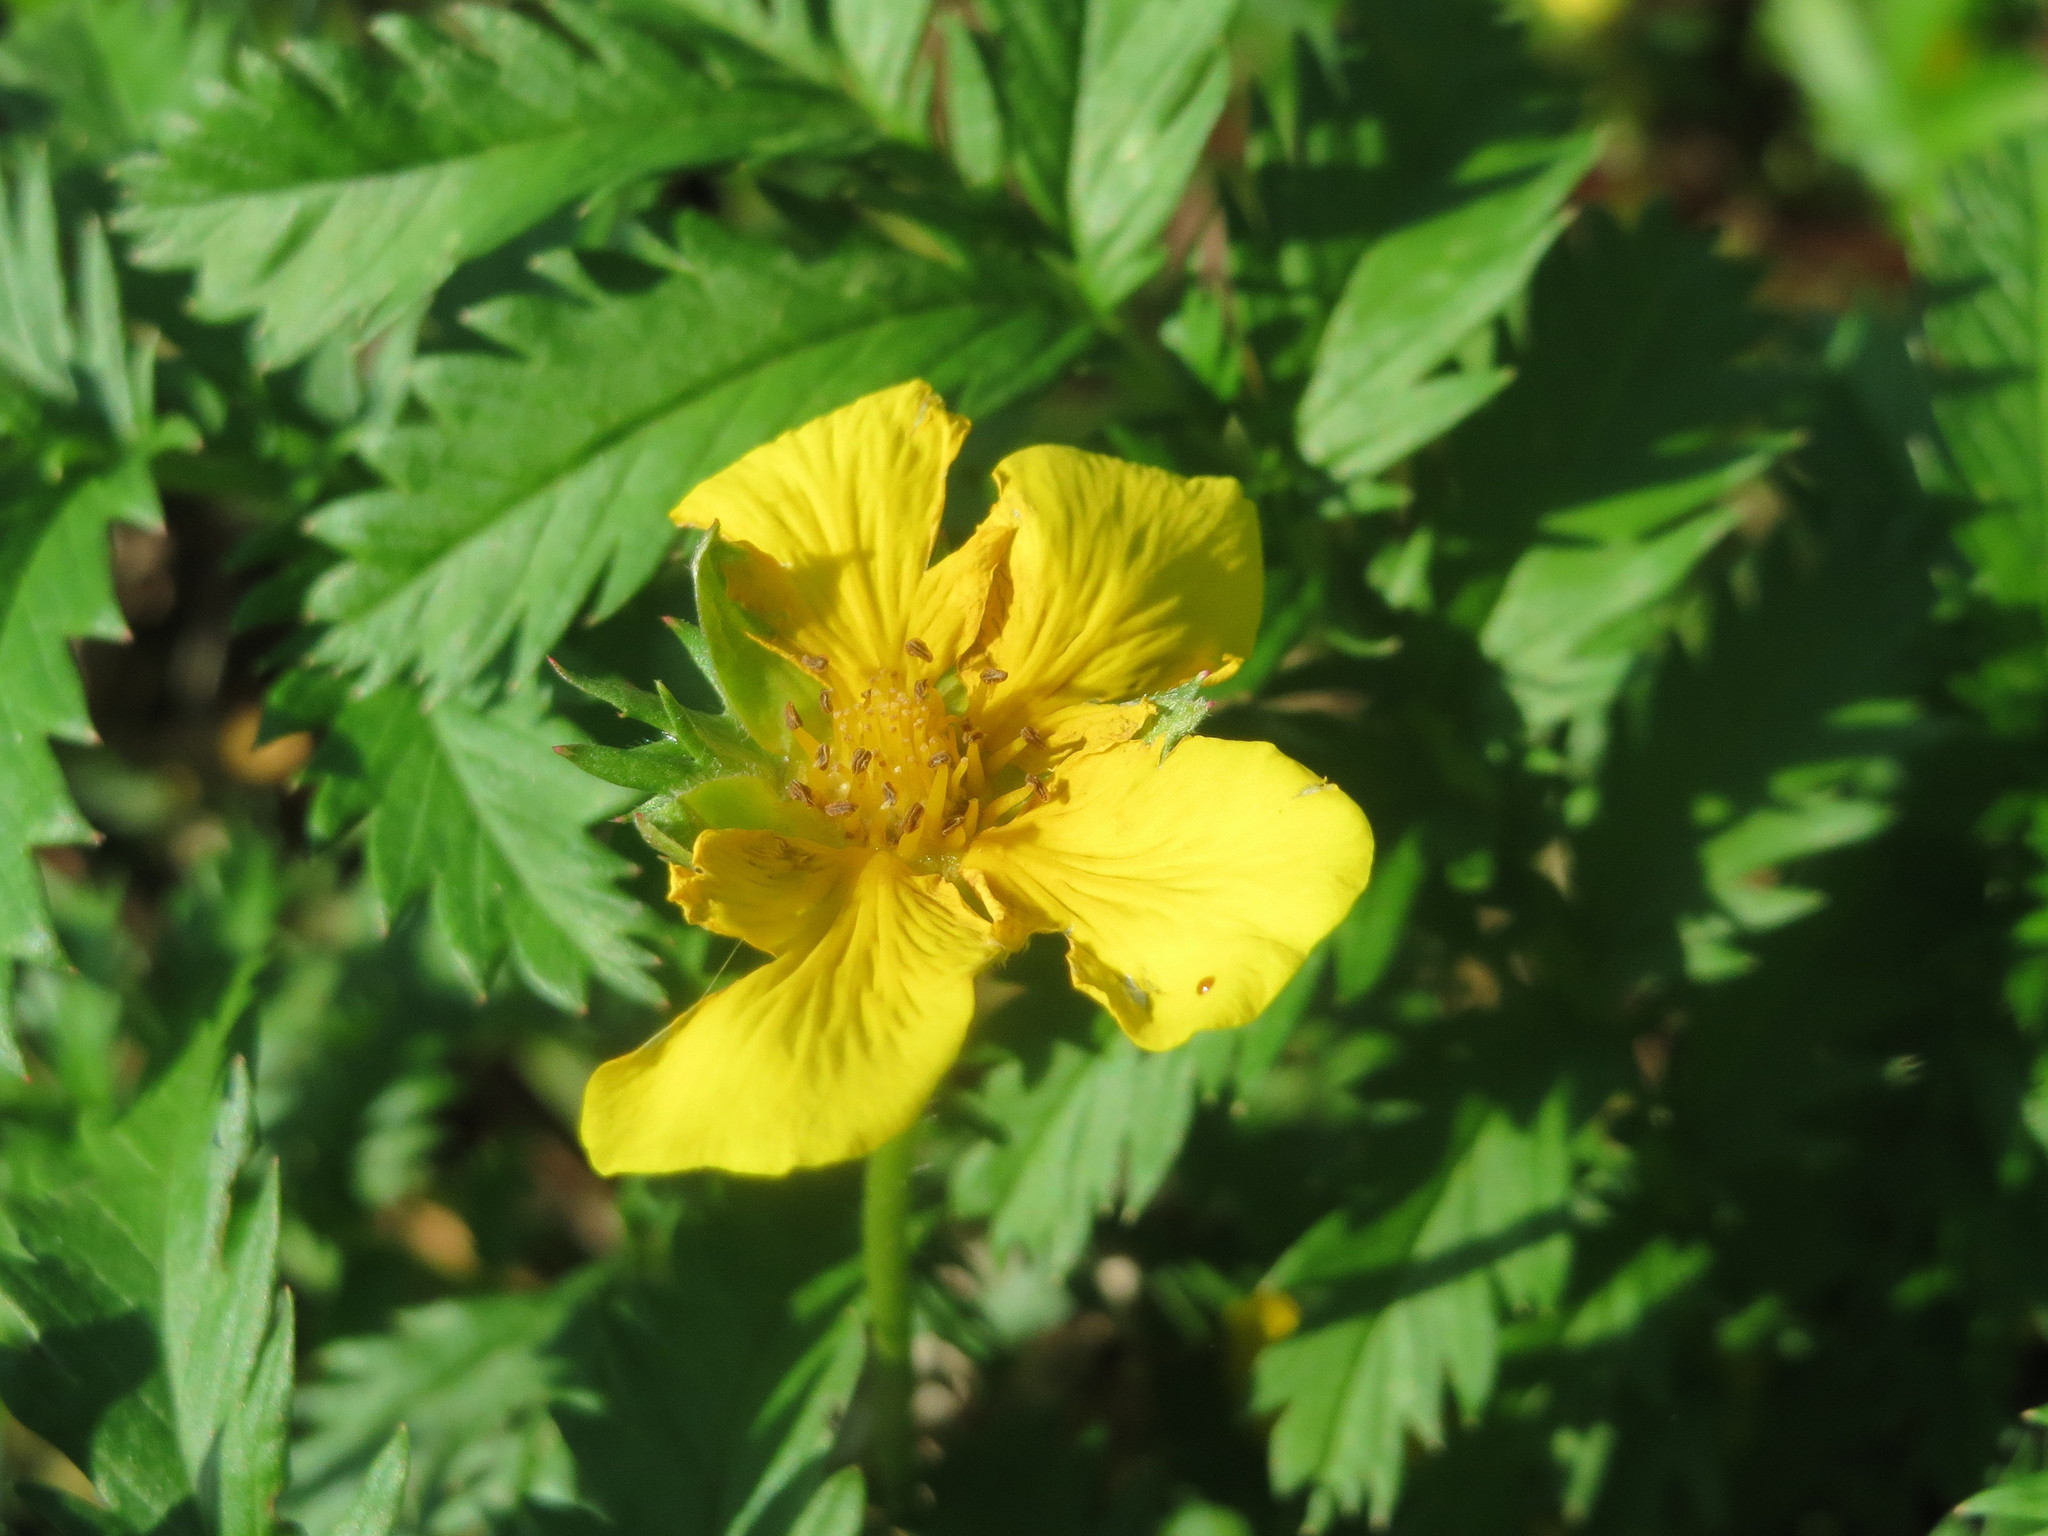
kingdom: Plantae
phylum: Tracheophyta
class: Magnoliopsida
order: Rosales
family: Rosaceae
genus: Argentina
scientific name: Argentina anserina
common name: Common silverweed
